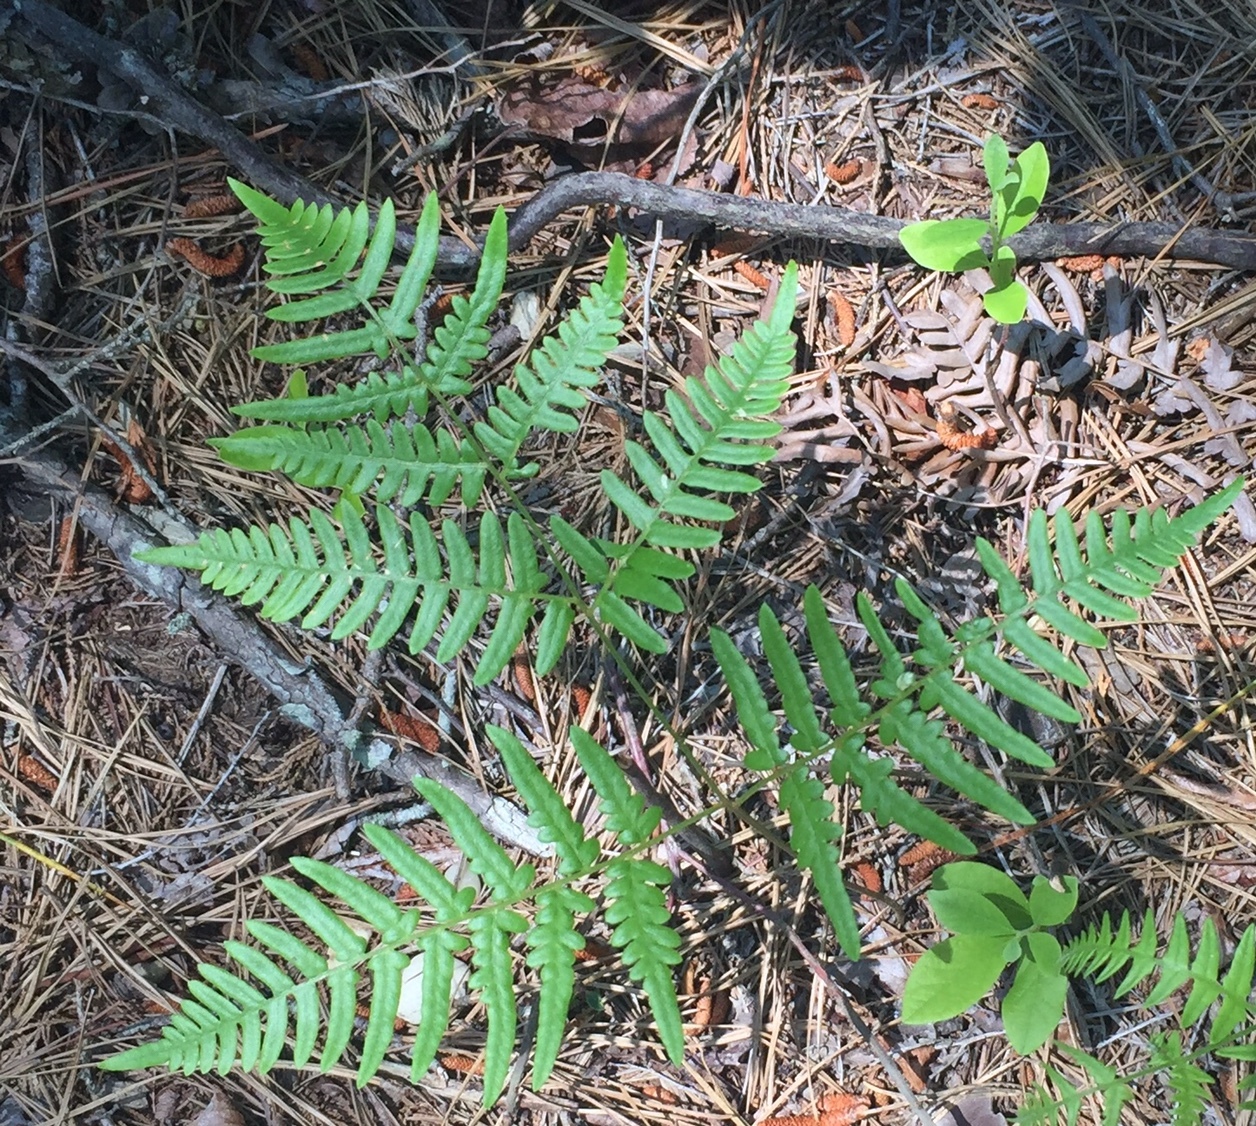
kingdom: Plantae
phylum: Tracheophyta
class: Polypodiopsida
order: Polypodiales
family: Dennstaedtiaceae
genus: Pteridium
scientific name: Pteridium aquilinum
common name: Bracken
